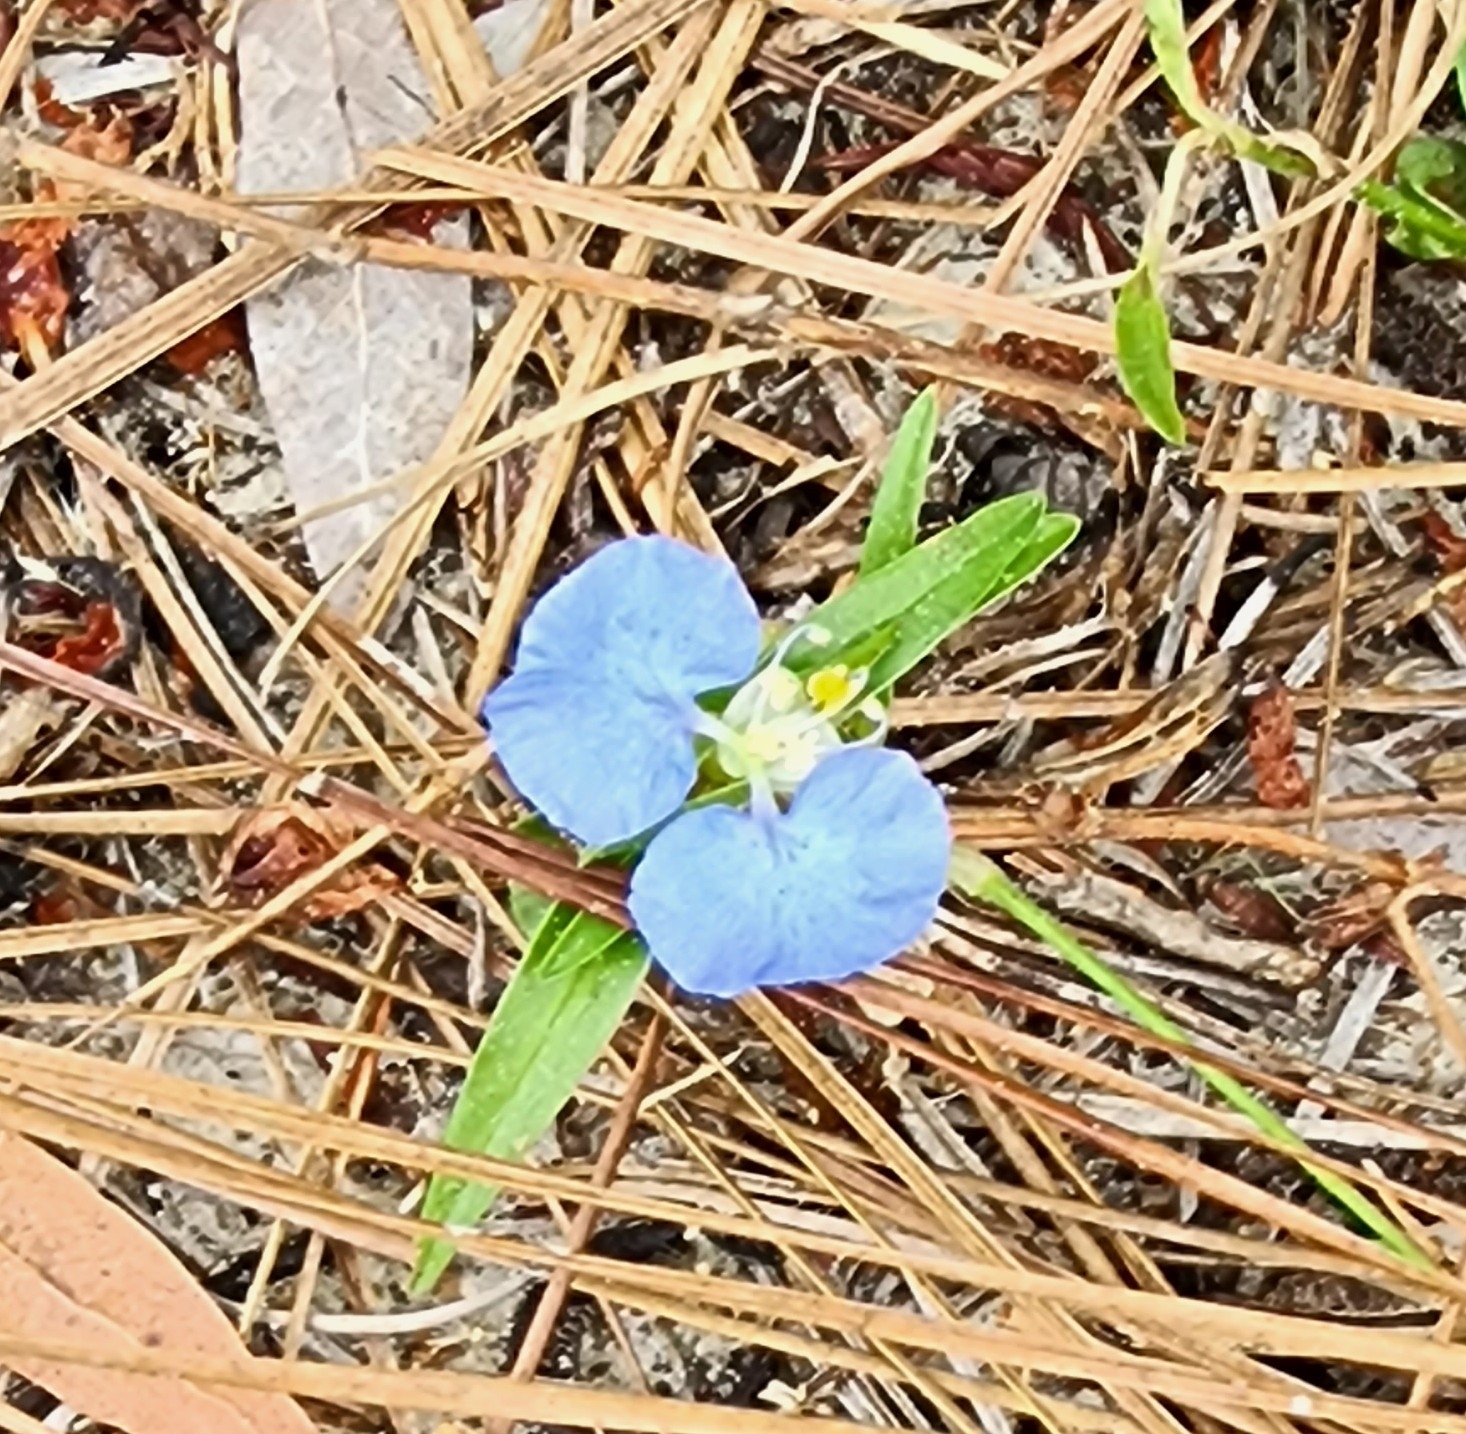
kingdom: Plantae
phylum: Tracheophyta
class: Liliopsida
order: Commelinales
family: Commelinaceae
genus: Commelina
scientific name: Commelina erecta
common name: Blousel blommetjie
